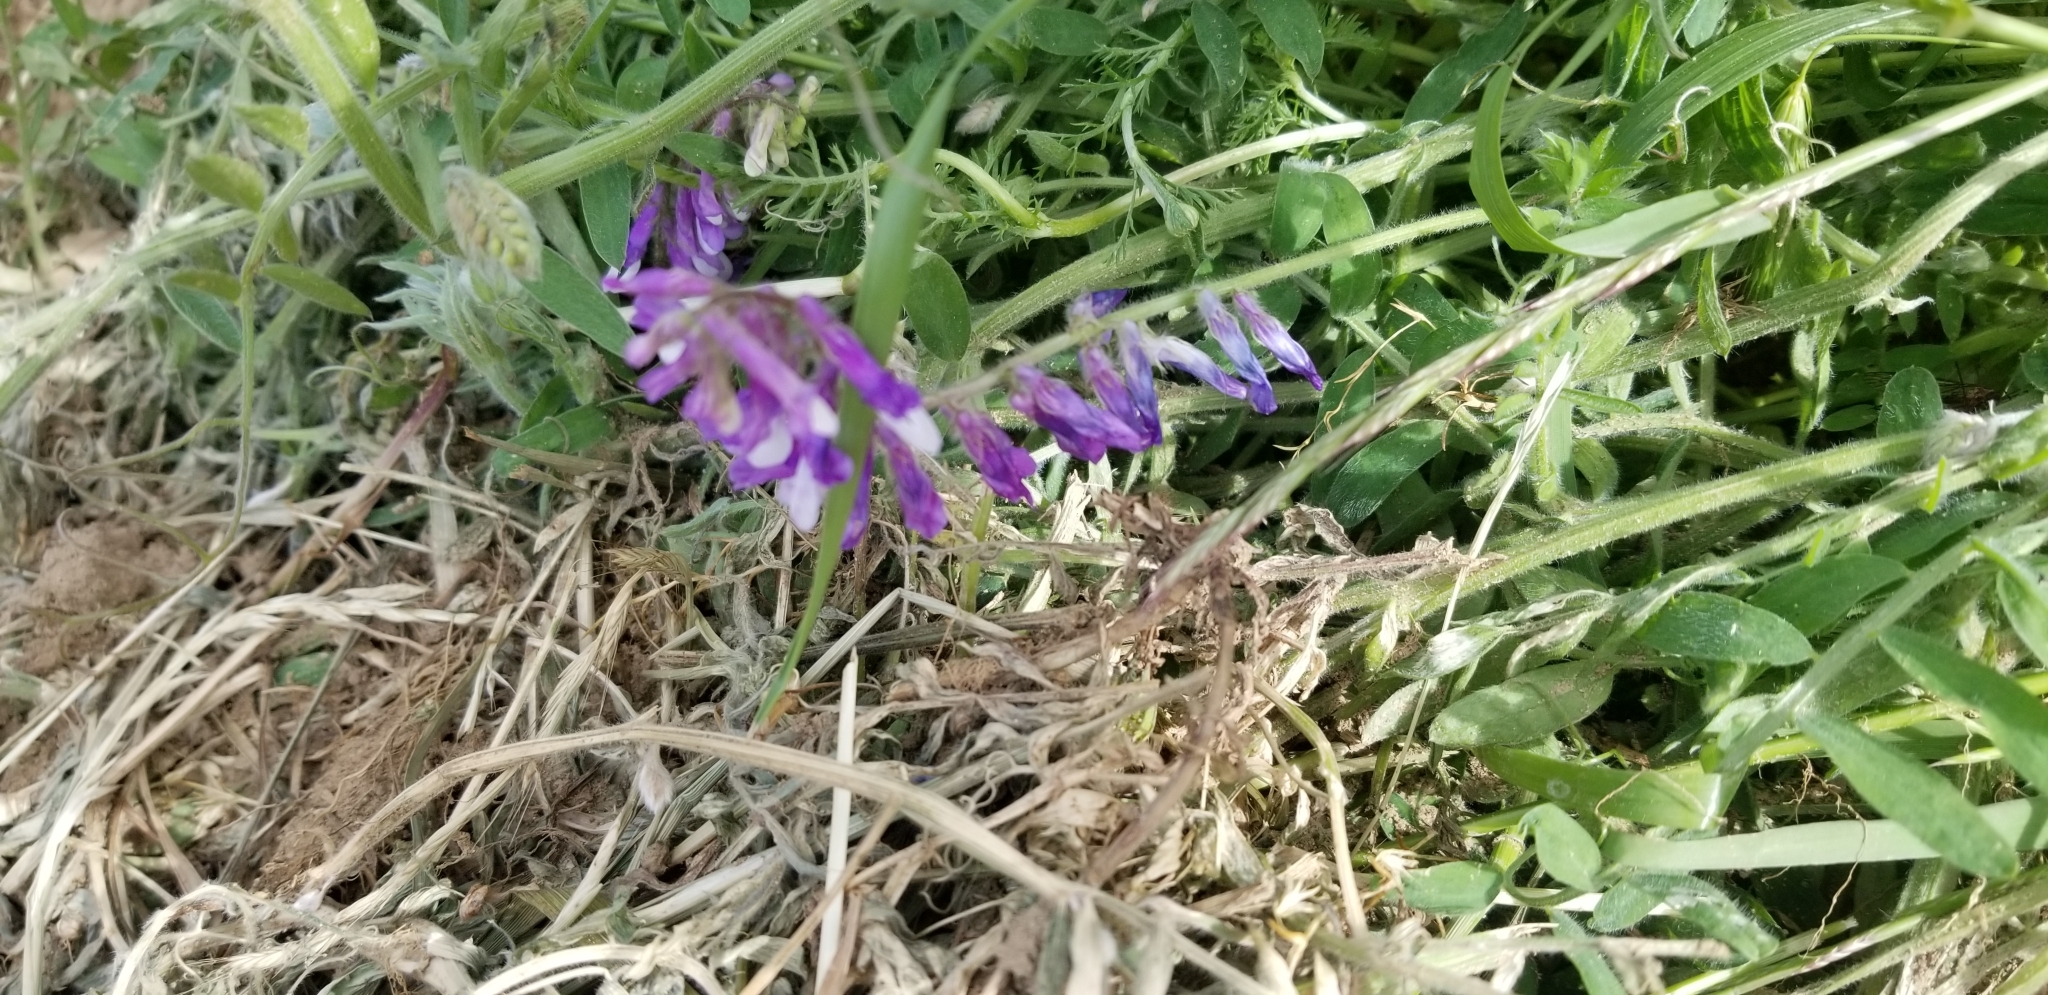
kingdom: Plantae
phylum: Tracheophyta
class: Magnoliopsida
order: Fabales
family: Fabaceae
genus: Vicia
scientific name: Vicia villosa
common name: Fodder vetch
